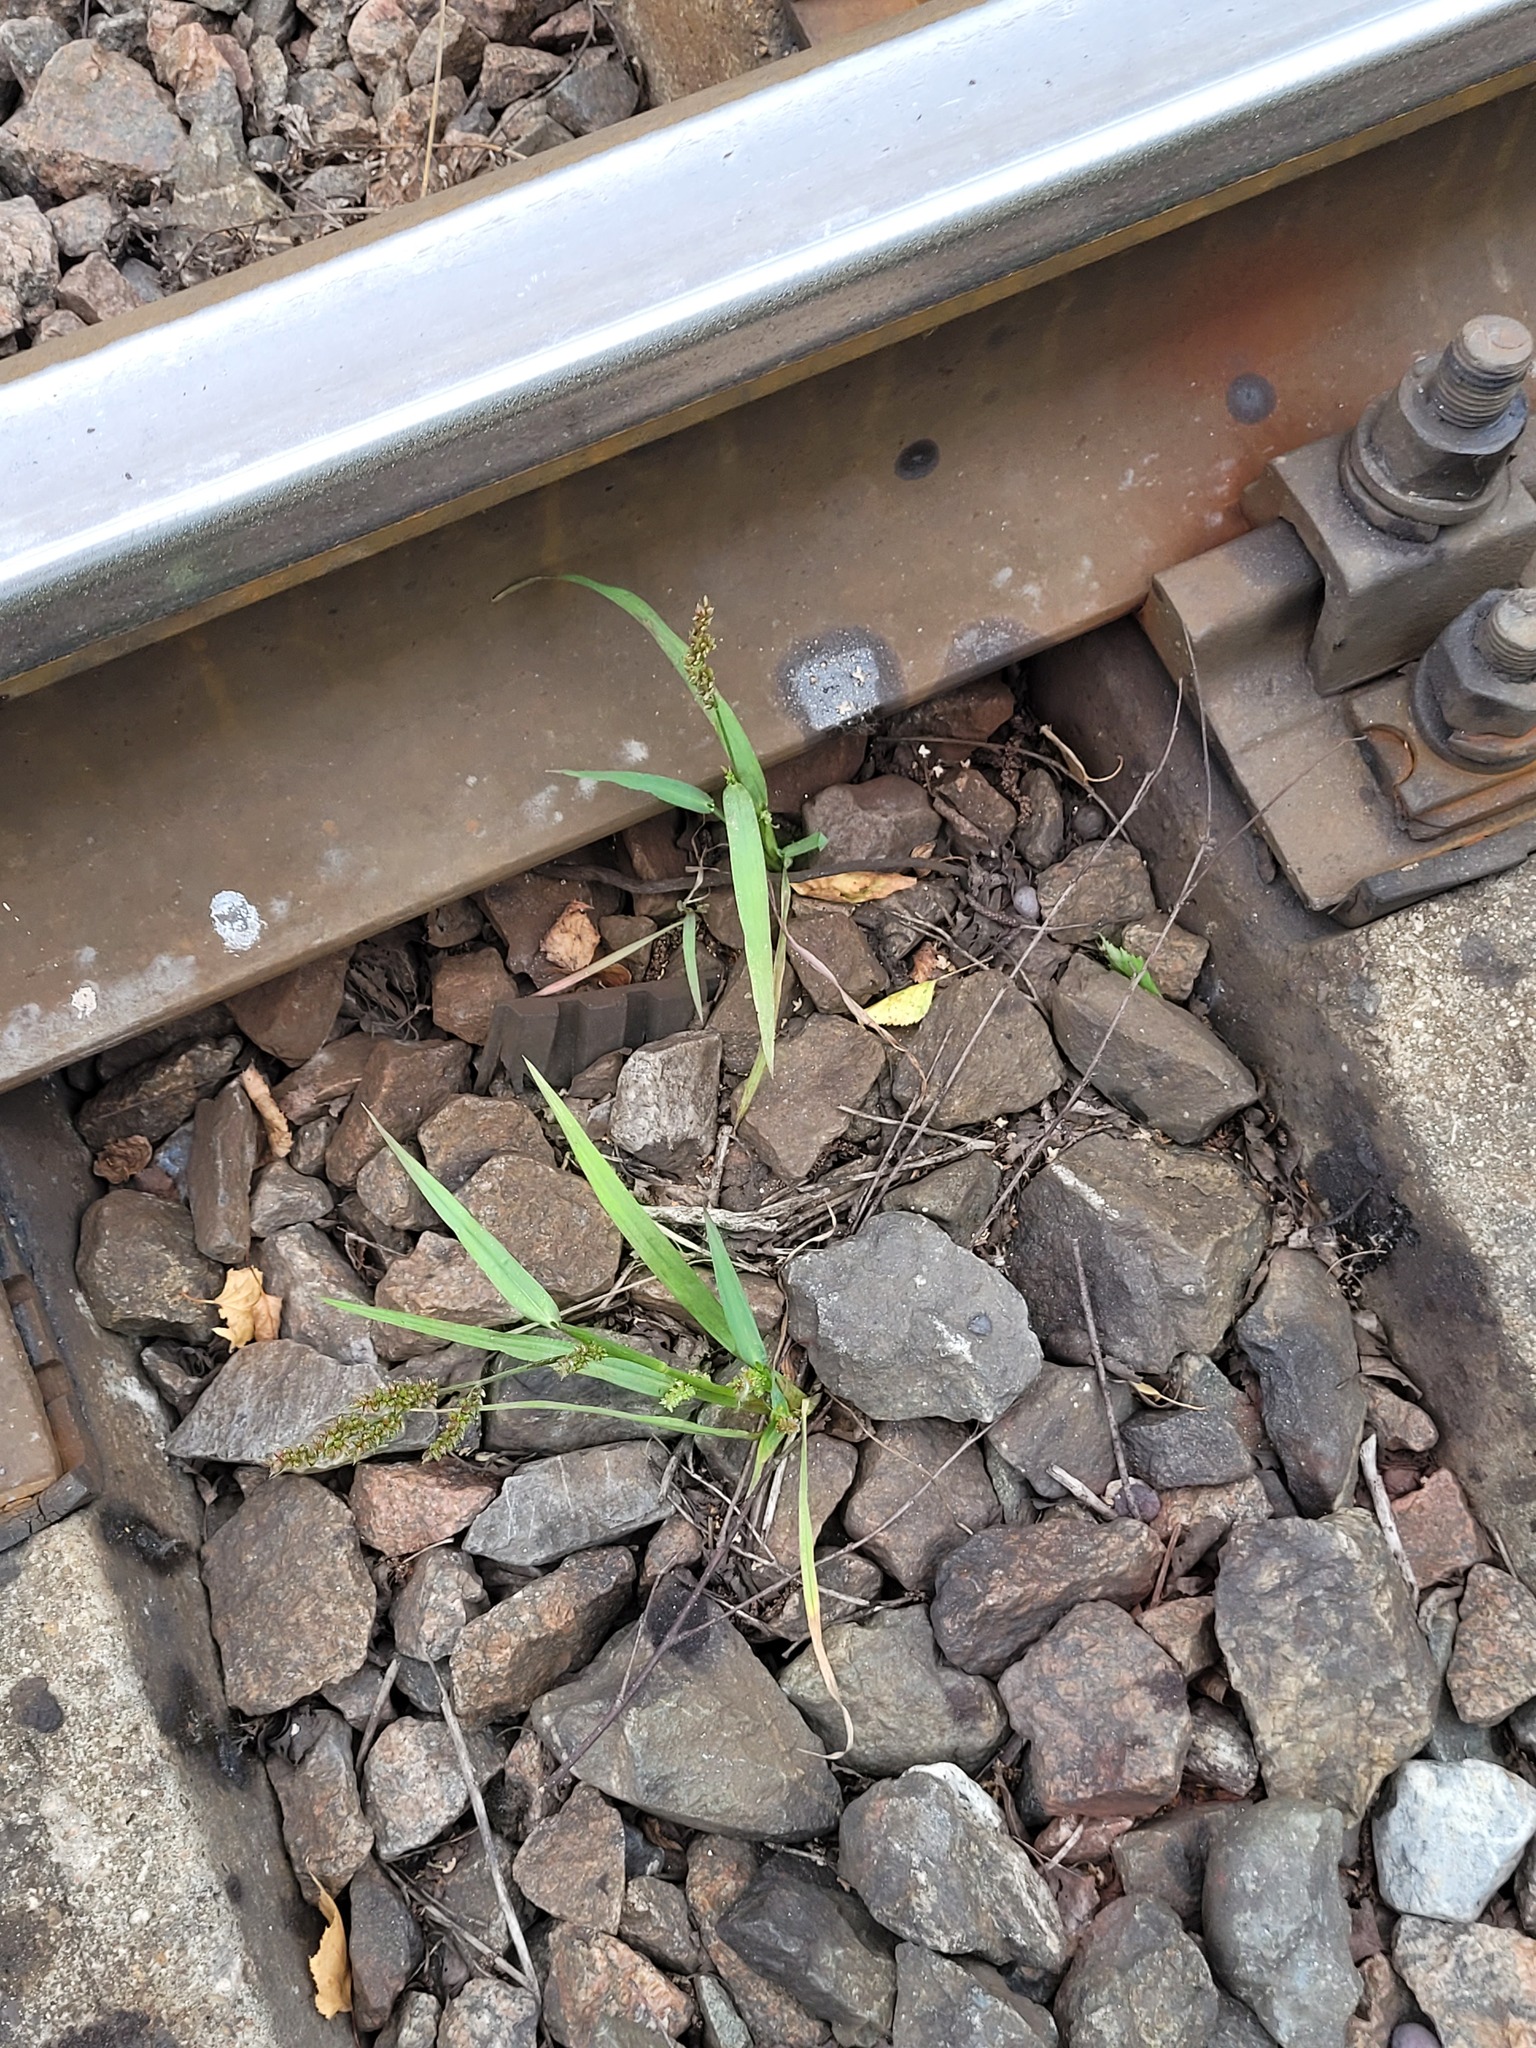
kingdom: Plantae
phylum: Tracheophyta
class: Liliopsida
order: Poales
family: Poaceae
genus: Echinochloa
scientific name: Echinochloa crus-galli
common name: Cockspur
